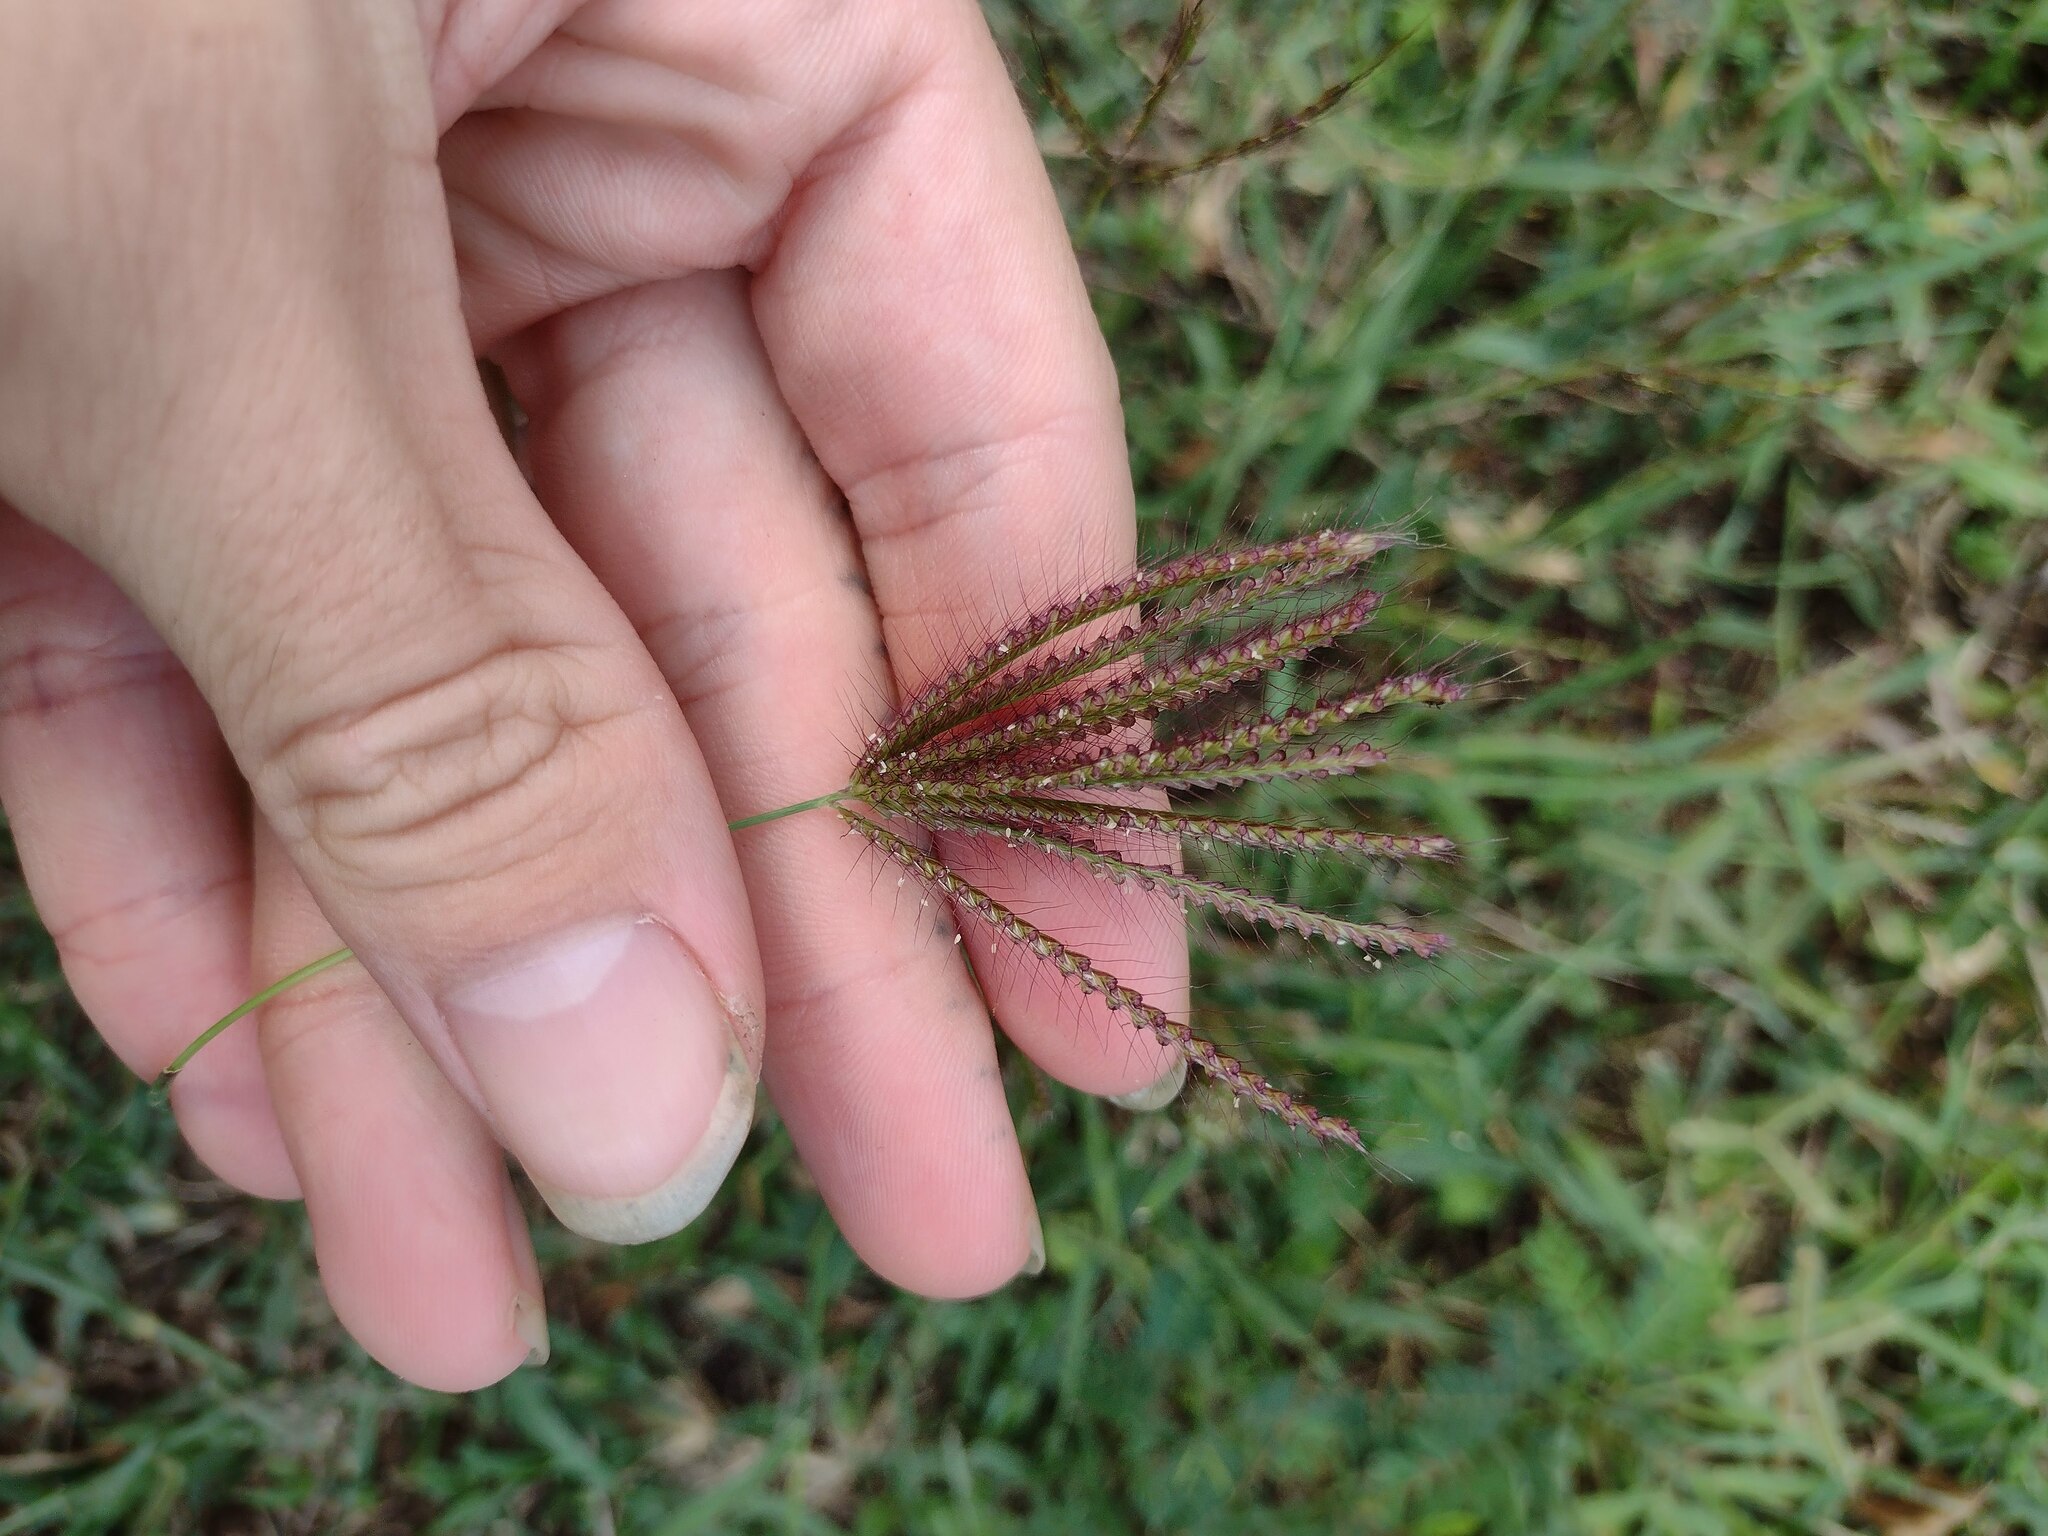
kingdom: Plantae
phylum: Tracheophyta
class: Liliopsida
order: Poales
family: Poaceae
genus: Chloris
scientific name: Chloris barbata
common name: Swollen fingergrass
